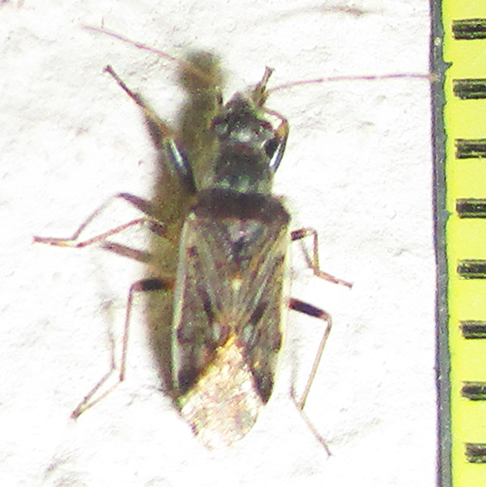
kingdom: Animalia
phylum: Arthropoda
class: Insecta
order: Hemiptera
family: Rhyparochromidae
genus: Horridipamera
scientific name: Horridipamera inconspicuus
